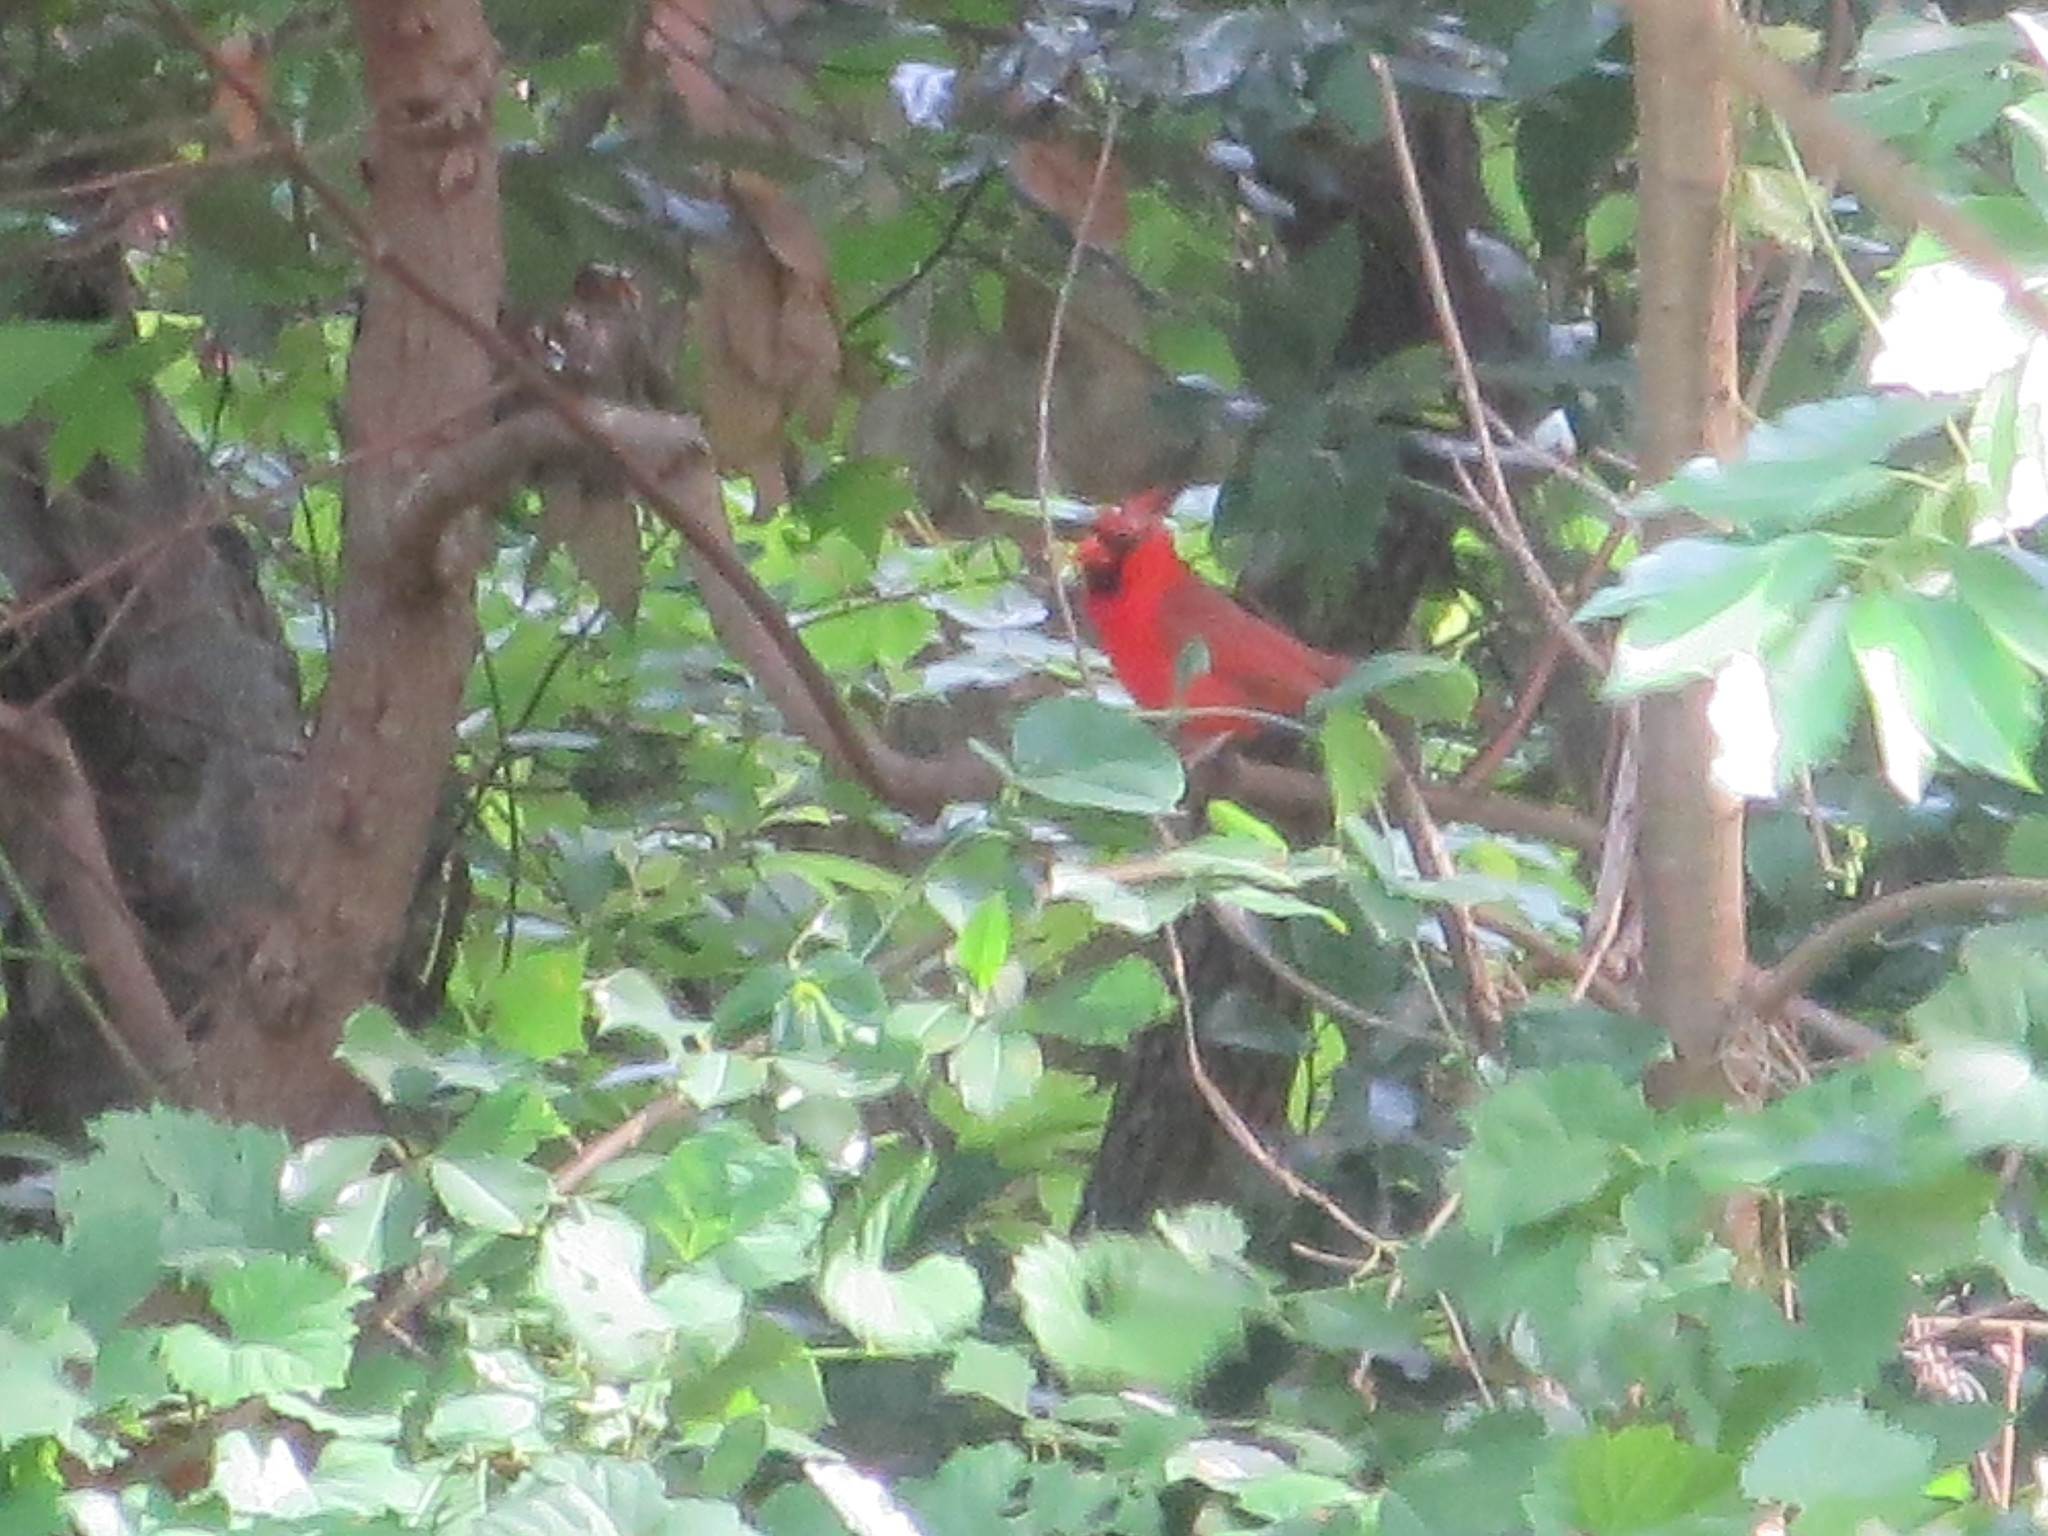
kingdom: Animalia
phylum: Chordata
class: Aves
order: Passeriformes
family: Cardinalidae
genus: Cardinalis
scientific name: Cardinalis cardinalis
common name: Northern cardinal
